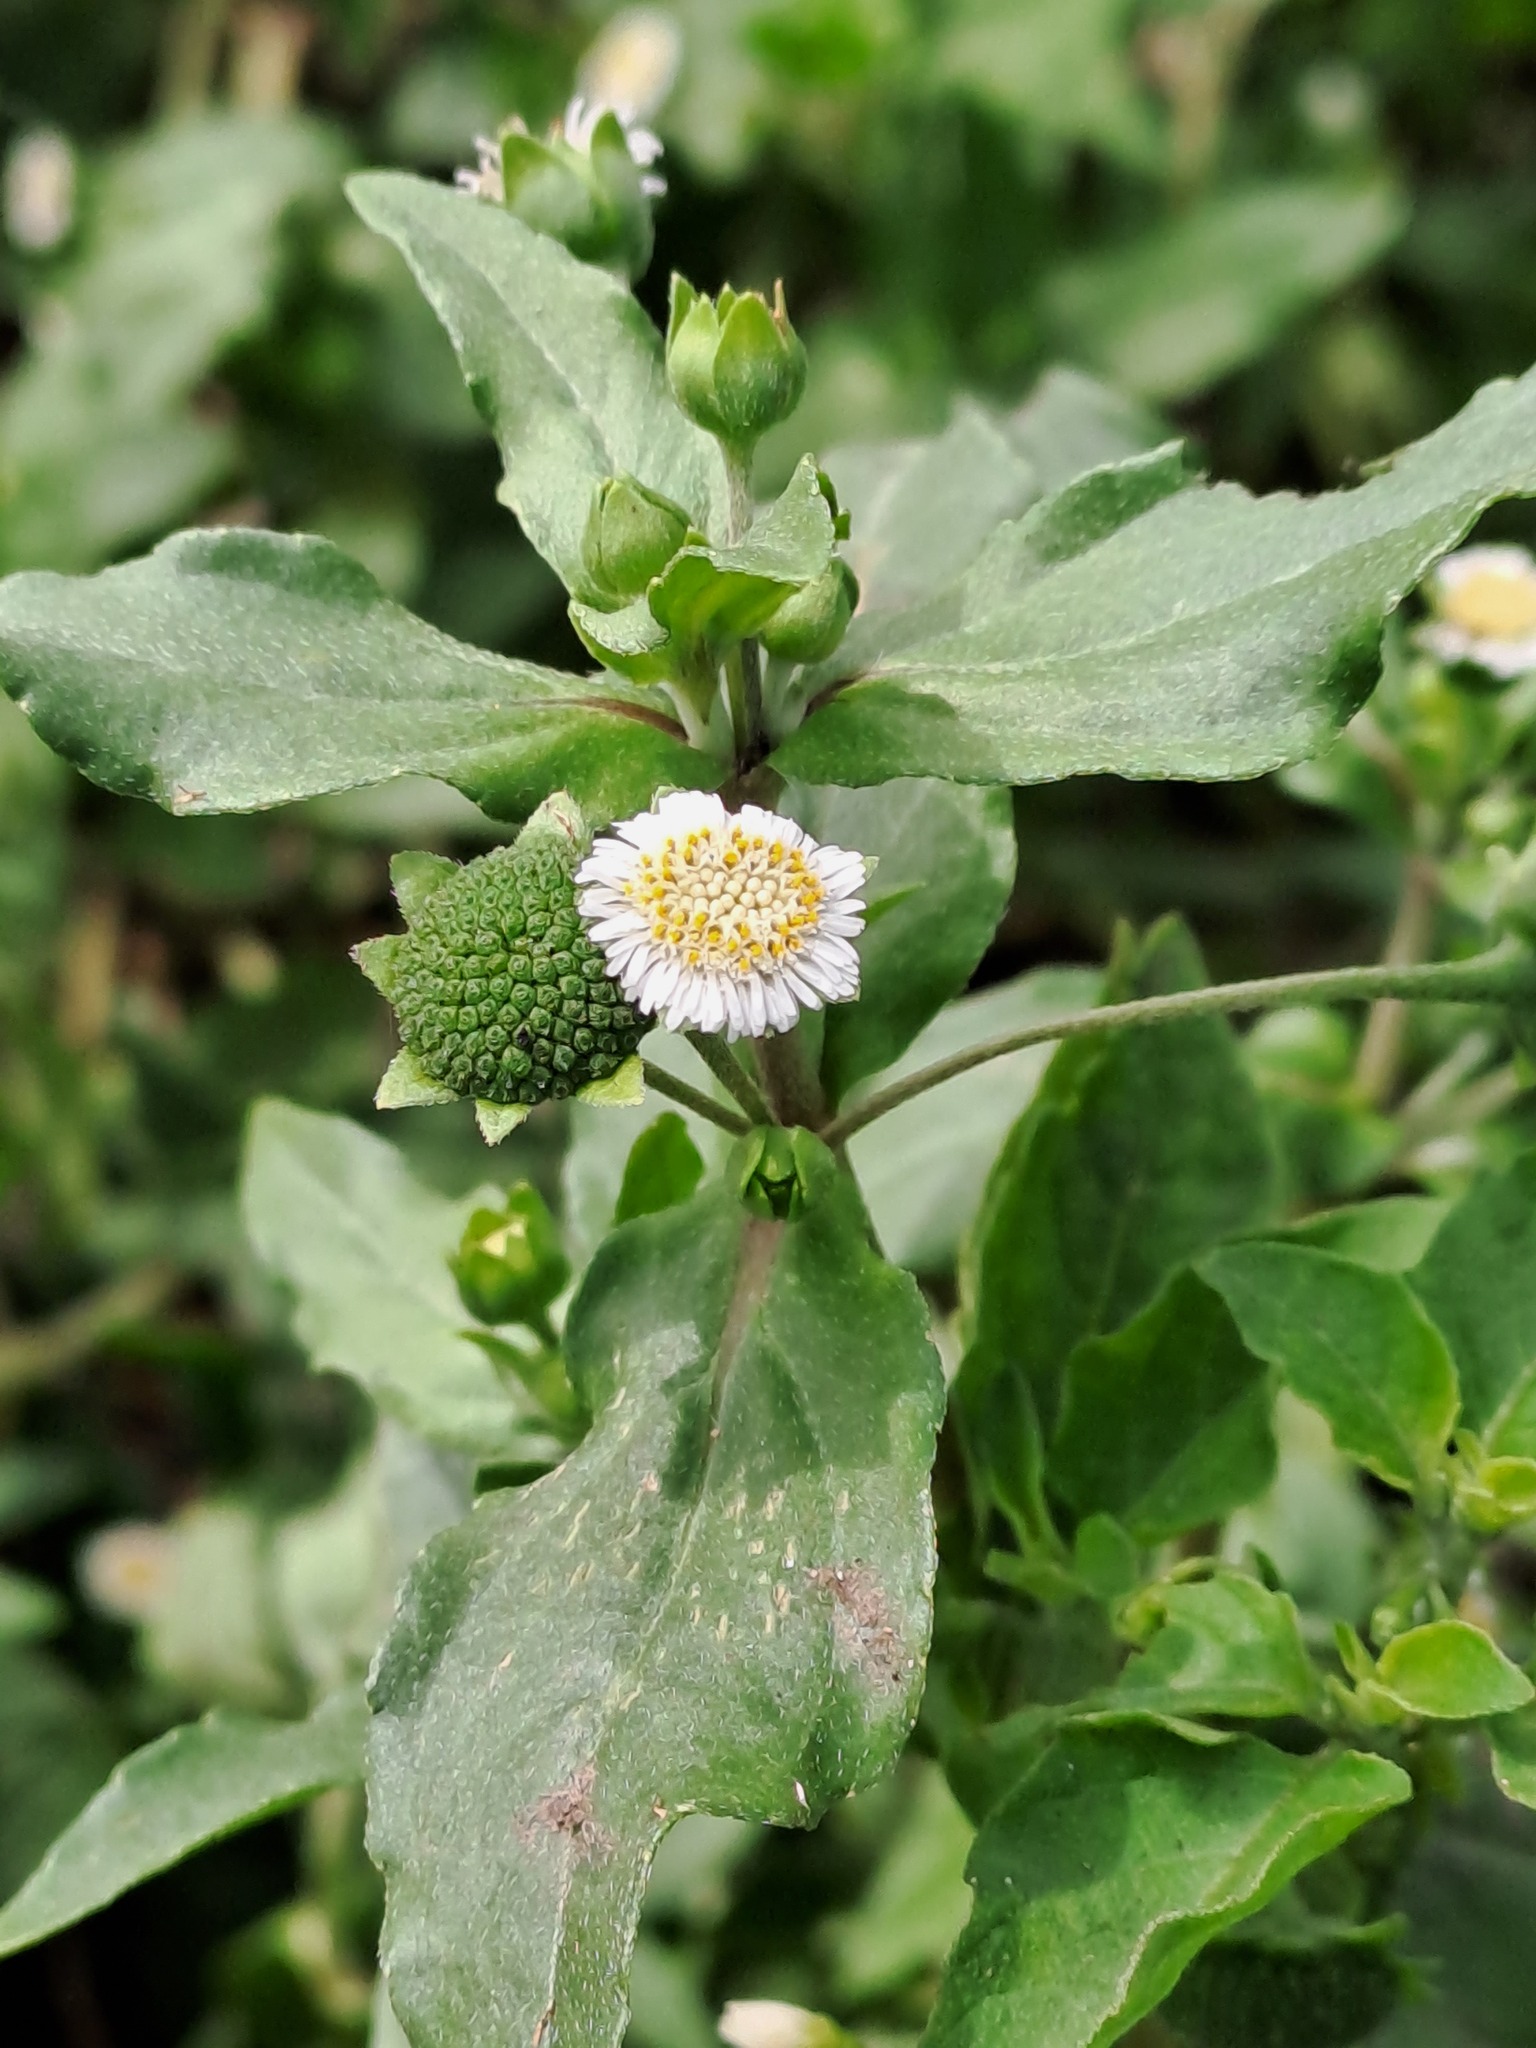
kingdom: Plantae
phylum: Tracheophyta
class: Magnoliopsida
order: Asterales
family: Asteraceae
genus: Eclipta
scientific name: Eclipta prostrata
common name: False daisy
